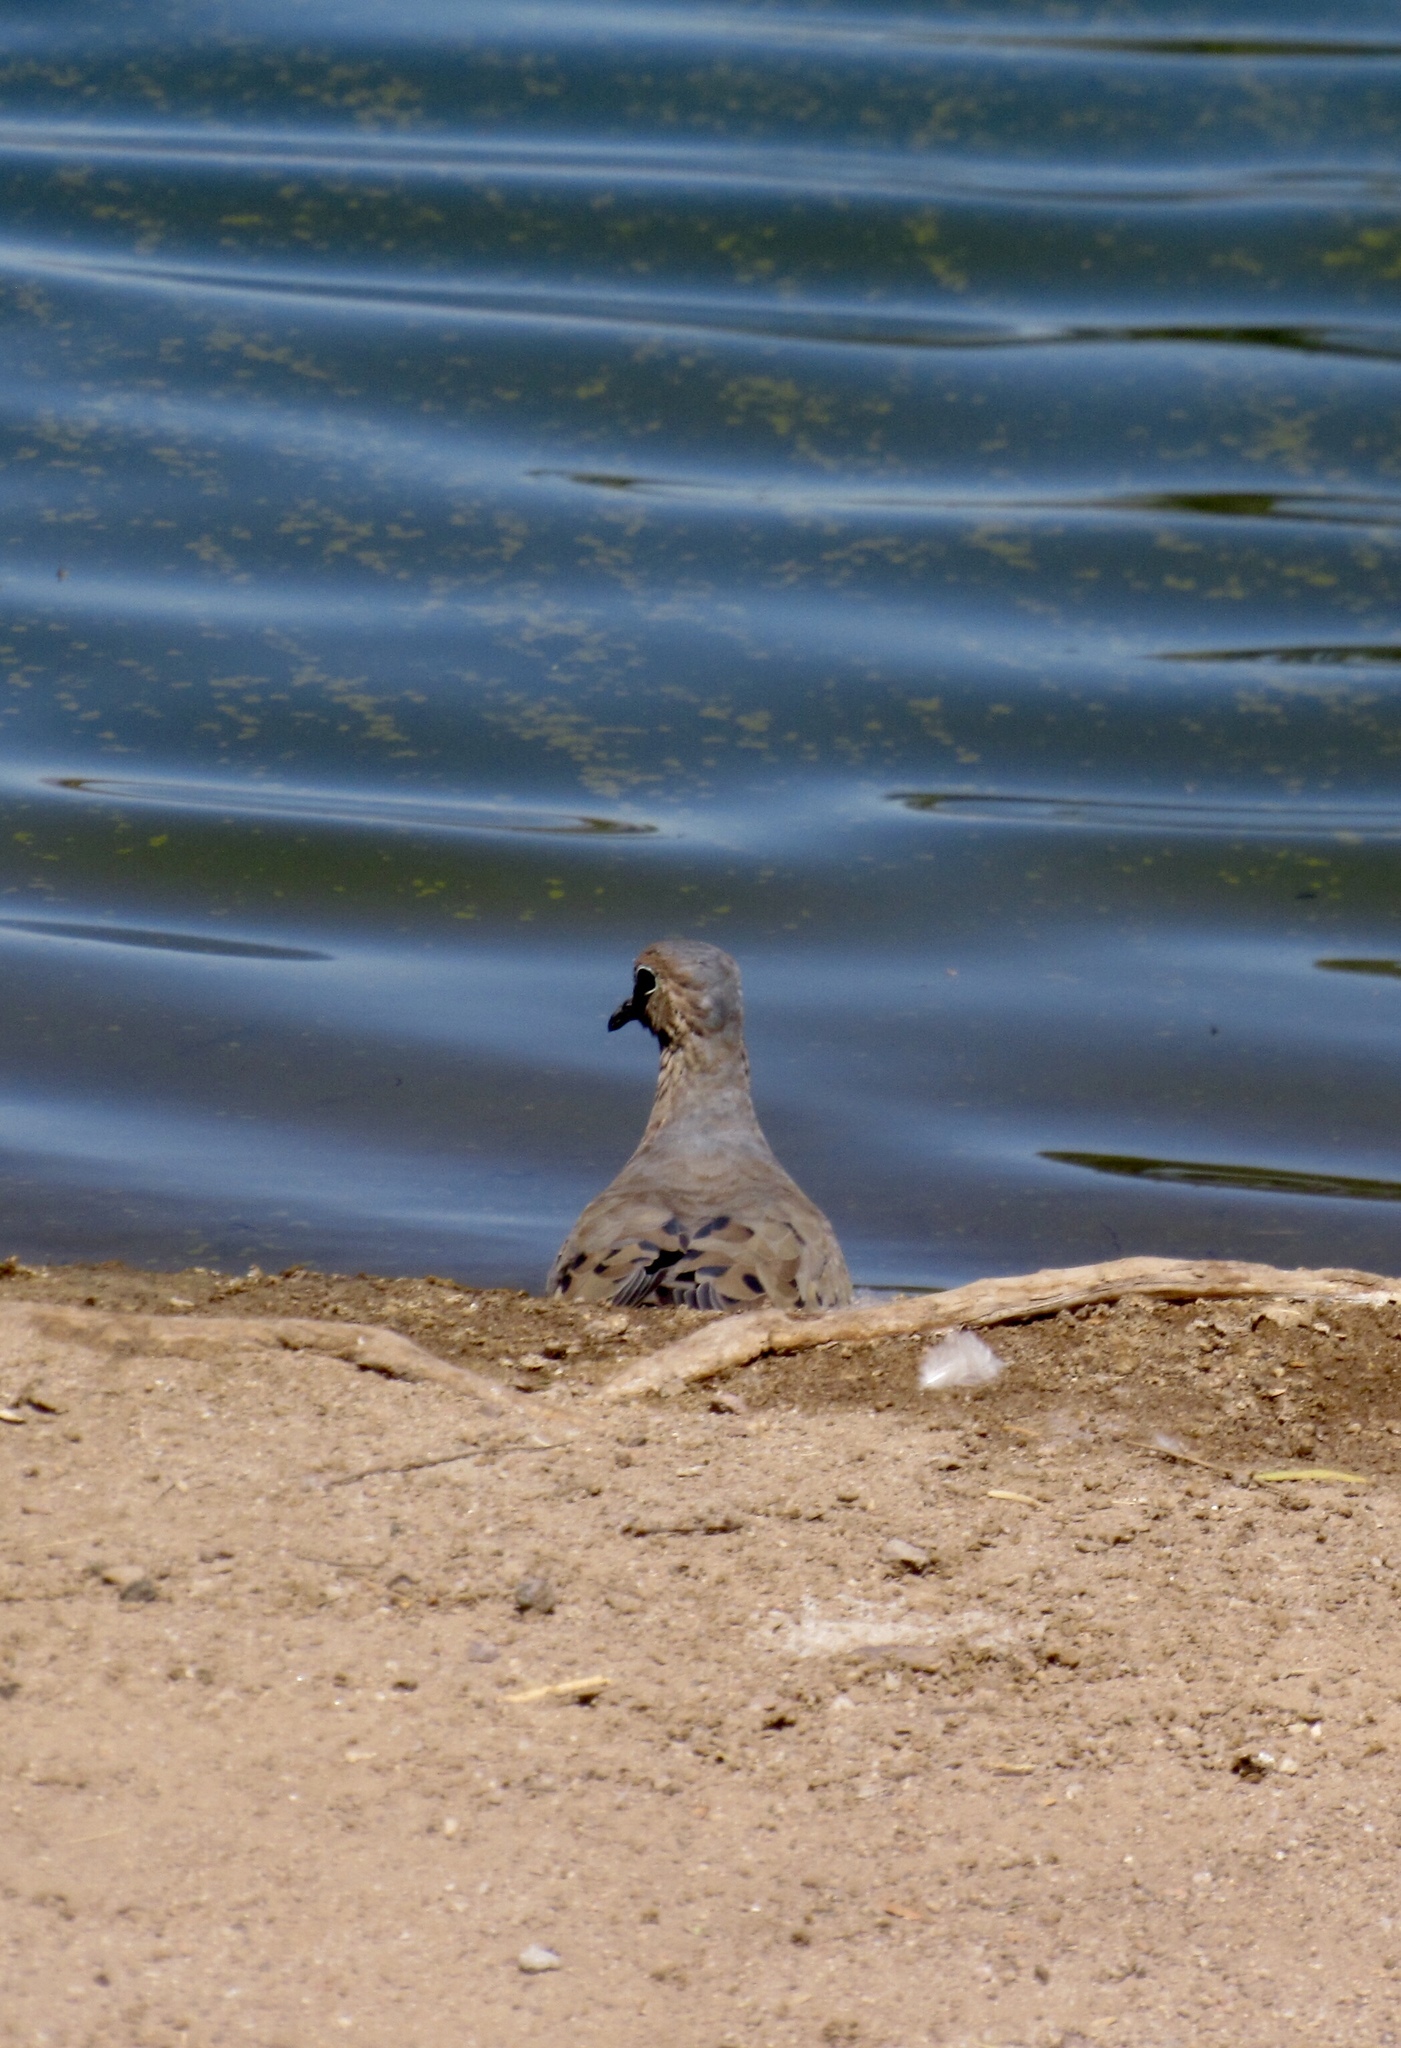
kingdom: Animalia
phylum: Chordata
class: Aves
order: Columbiformes
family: Columbidae
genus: Zenaida
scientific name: Zenaida macroura
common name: Mourning dove
